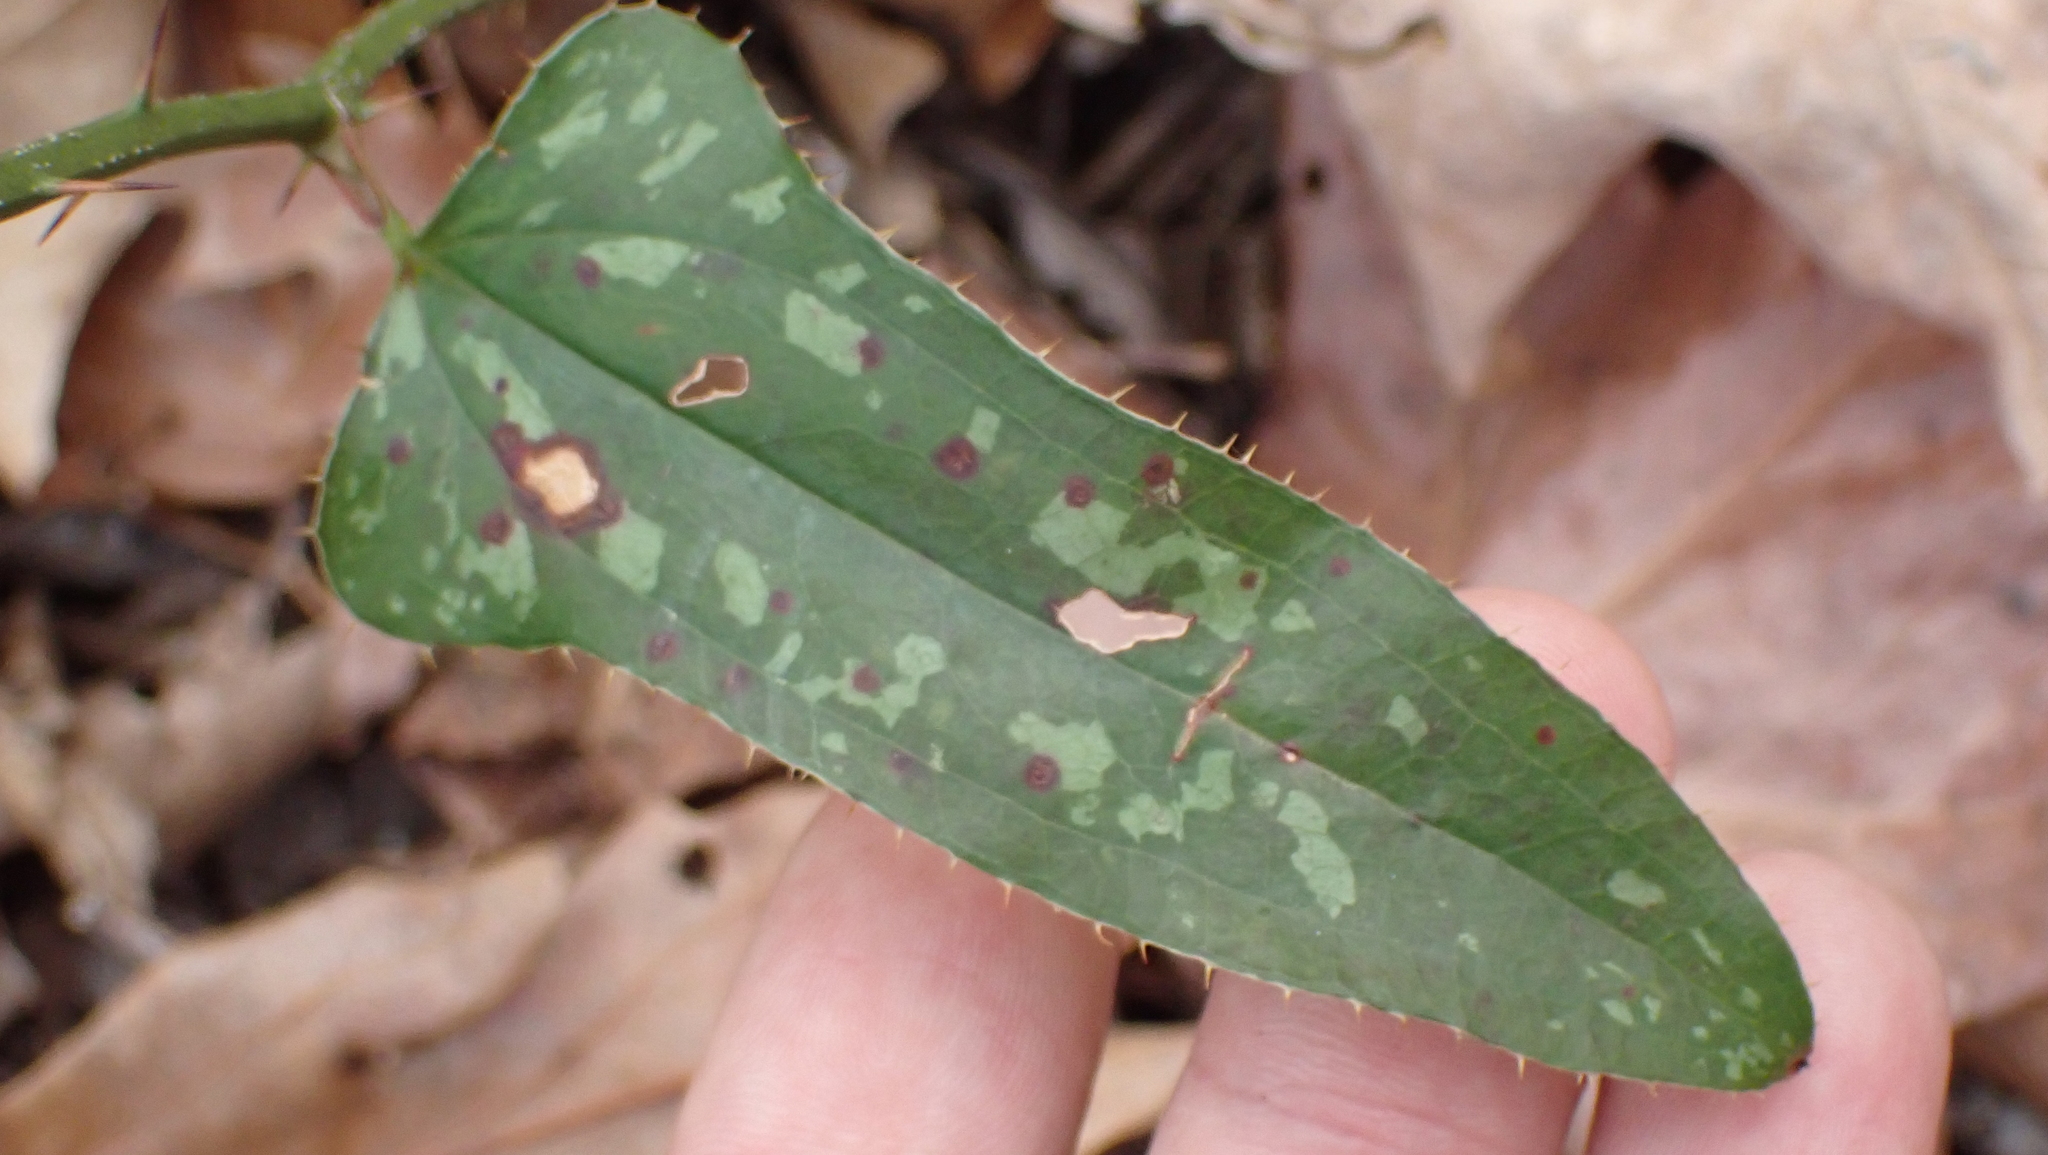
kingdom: Plantae
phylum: Tracheophyta
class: Liliopsida
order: Liliales
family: Smilacaceae
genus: Smilax
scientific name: Smilax bona-nox
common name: Catbrier
